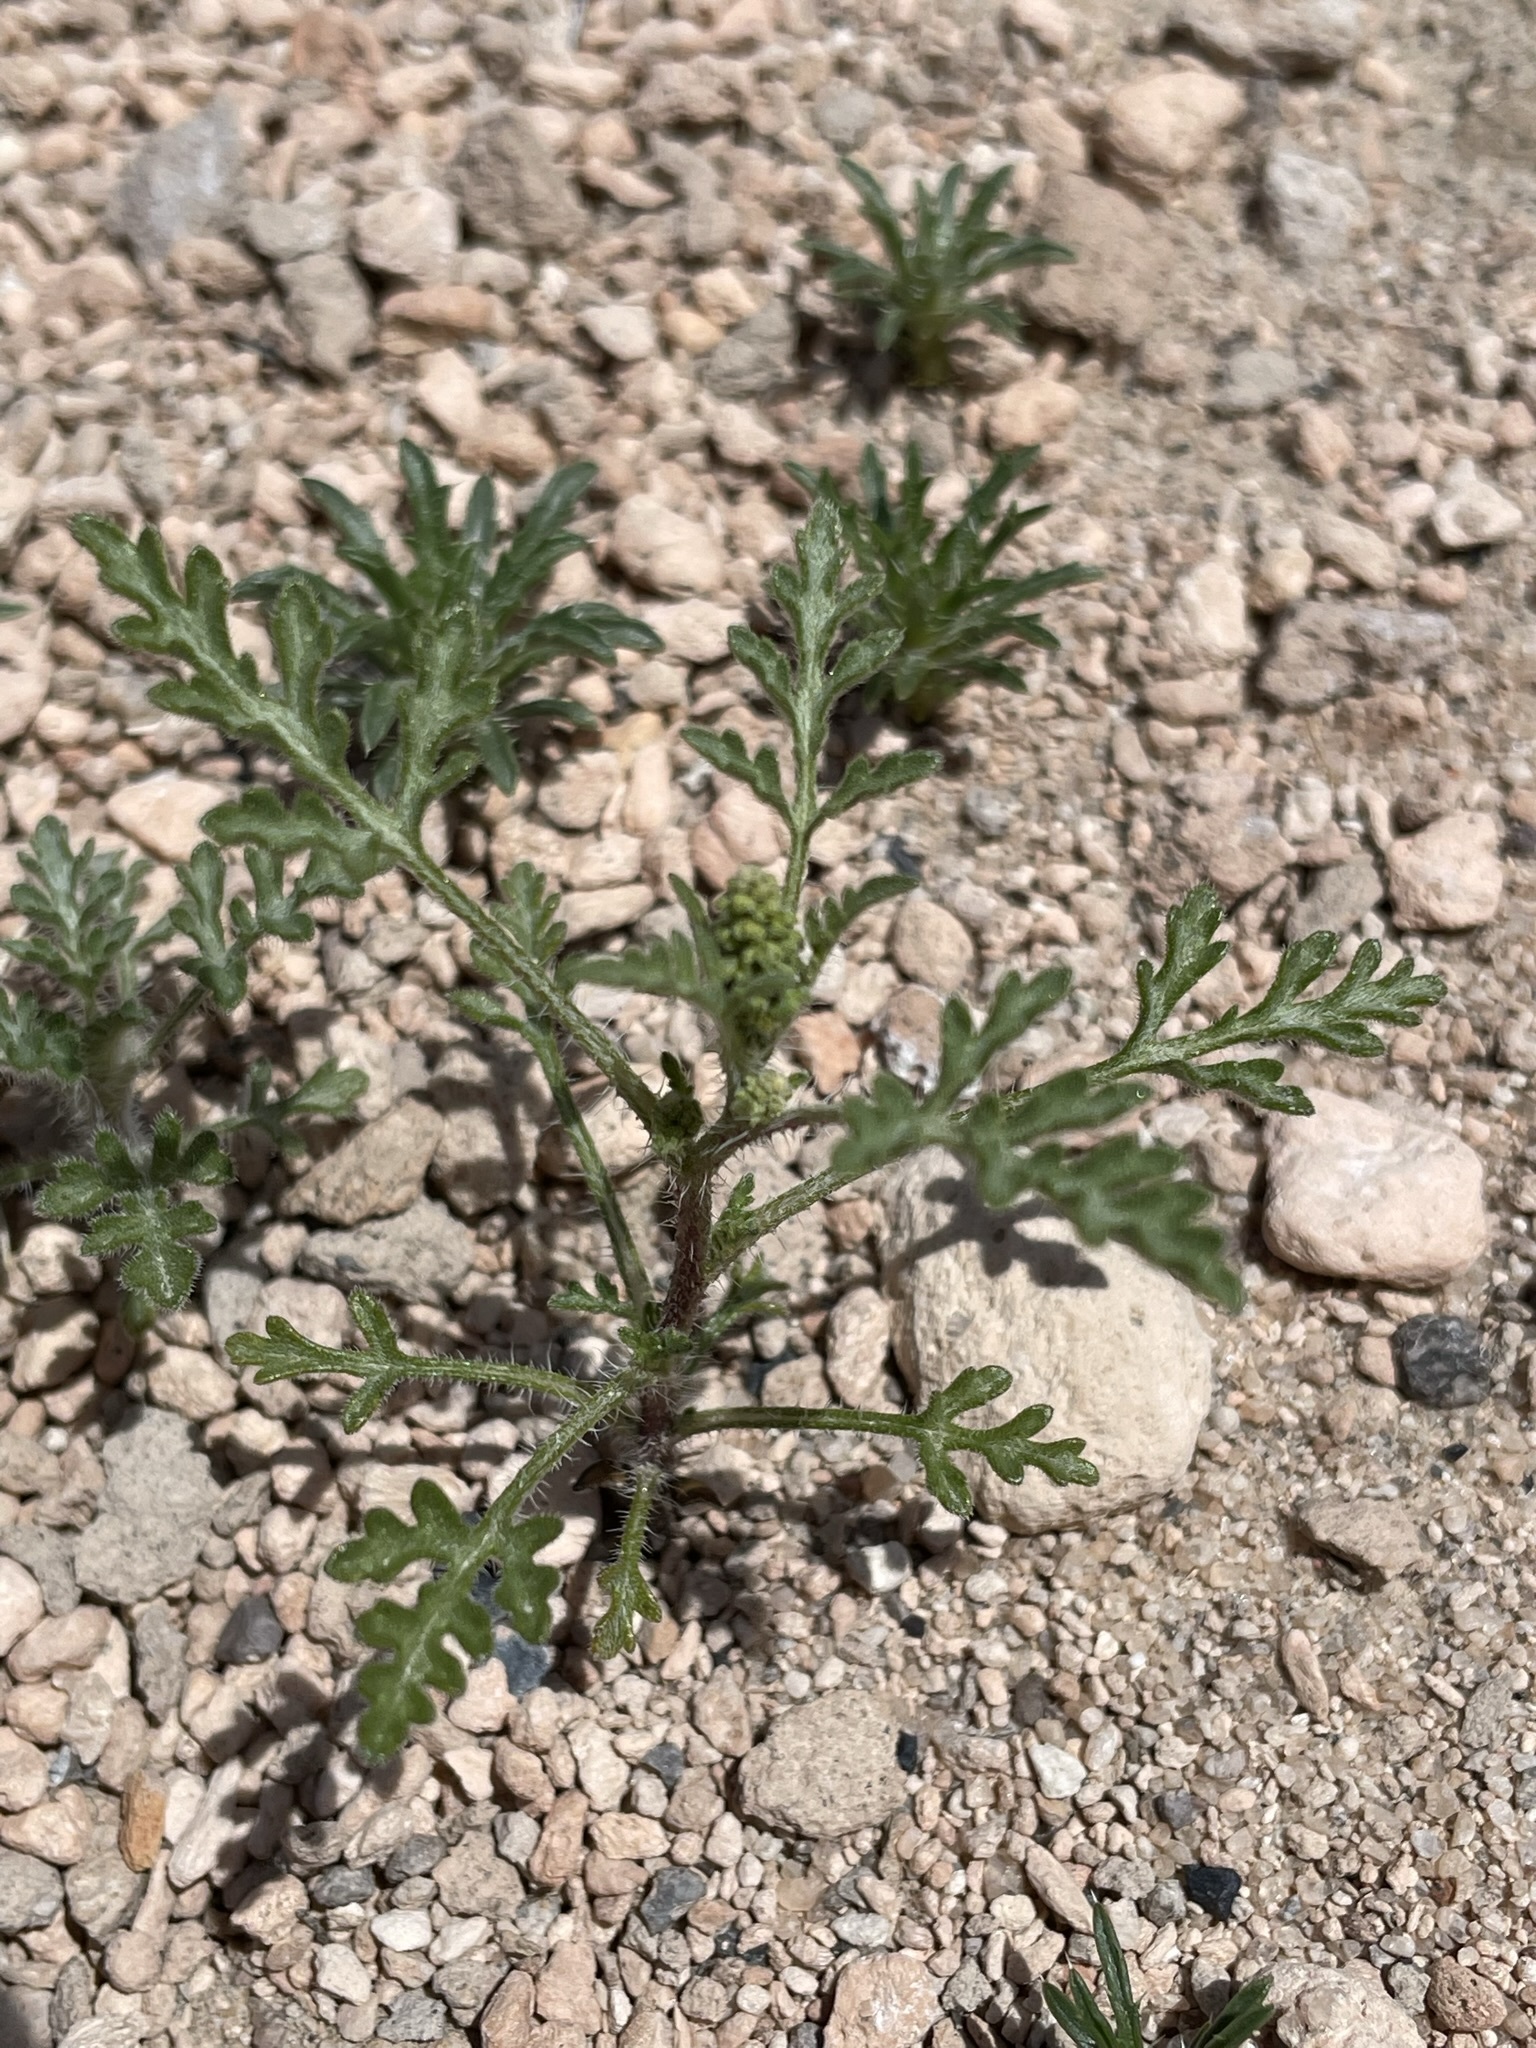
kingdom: Plantae
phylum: Tracheophyta
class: Magnoliopsida
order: Asterales
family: Asteraceae
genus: Ambrosia
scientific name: Ambrosia acanthicarpa
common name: Hooker's bur ragweed
